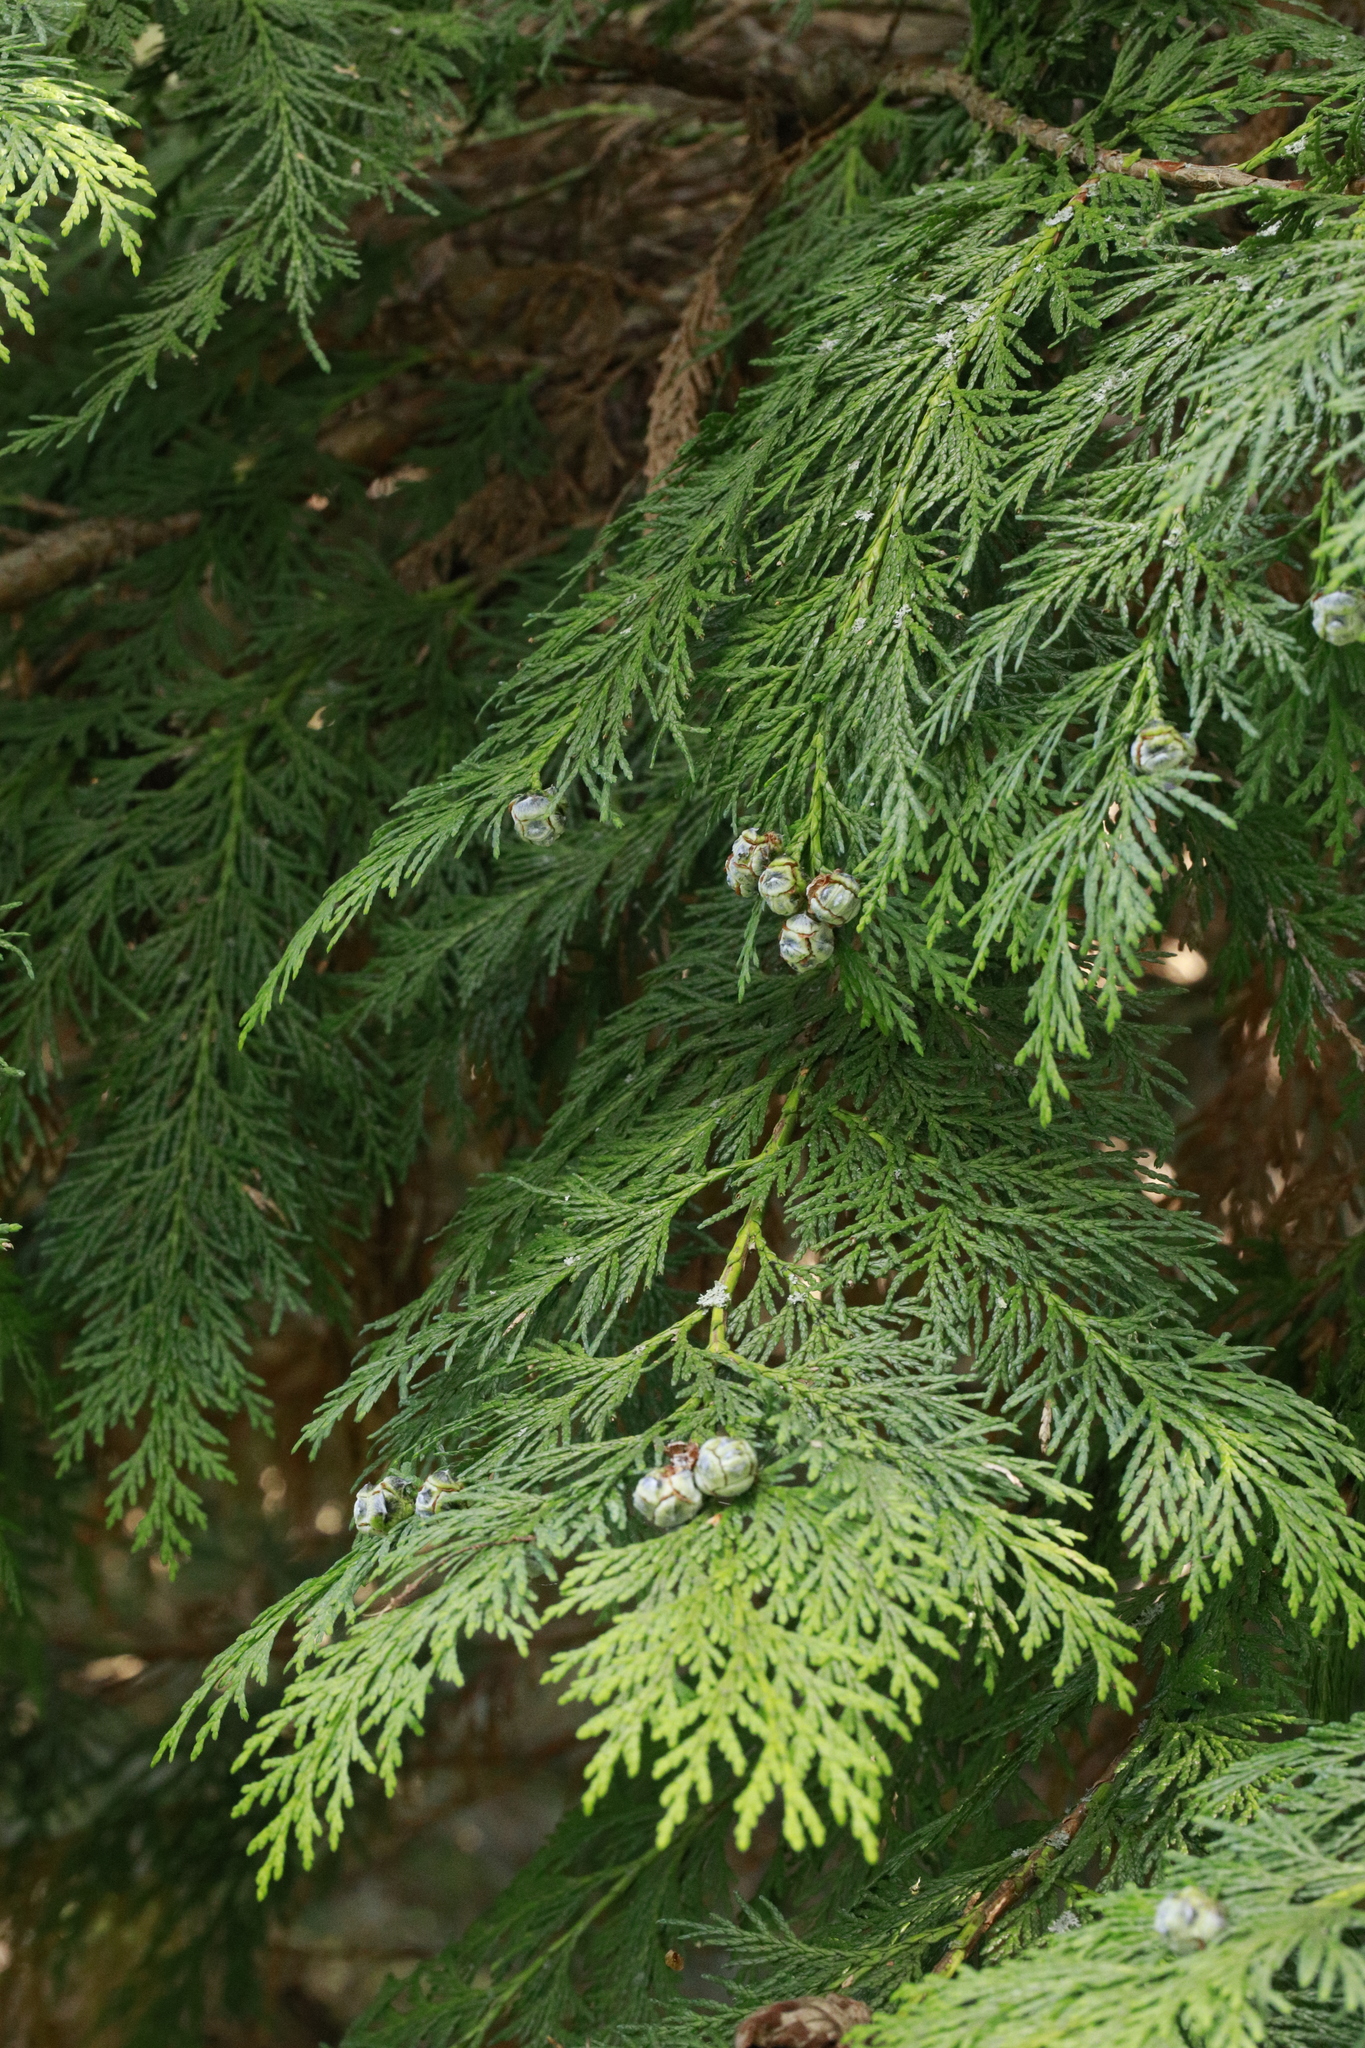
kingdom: Plantae
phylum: Tracheophyta
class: Pinopsida
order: Pinales
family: Cupressaceae
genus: Chamaecyparis
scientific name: Chamaecyparis lawsoniana
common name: Lawson's cypress
